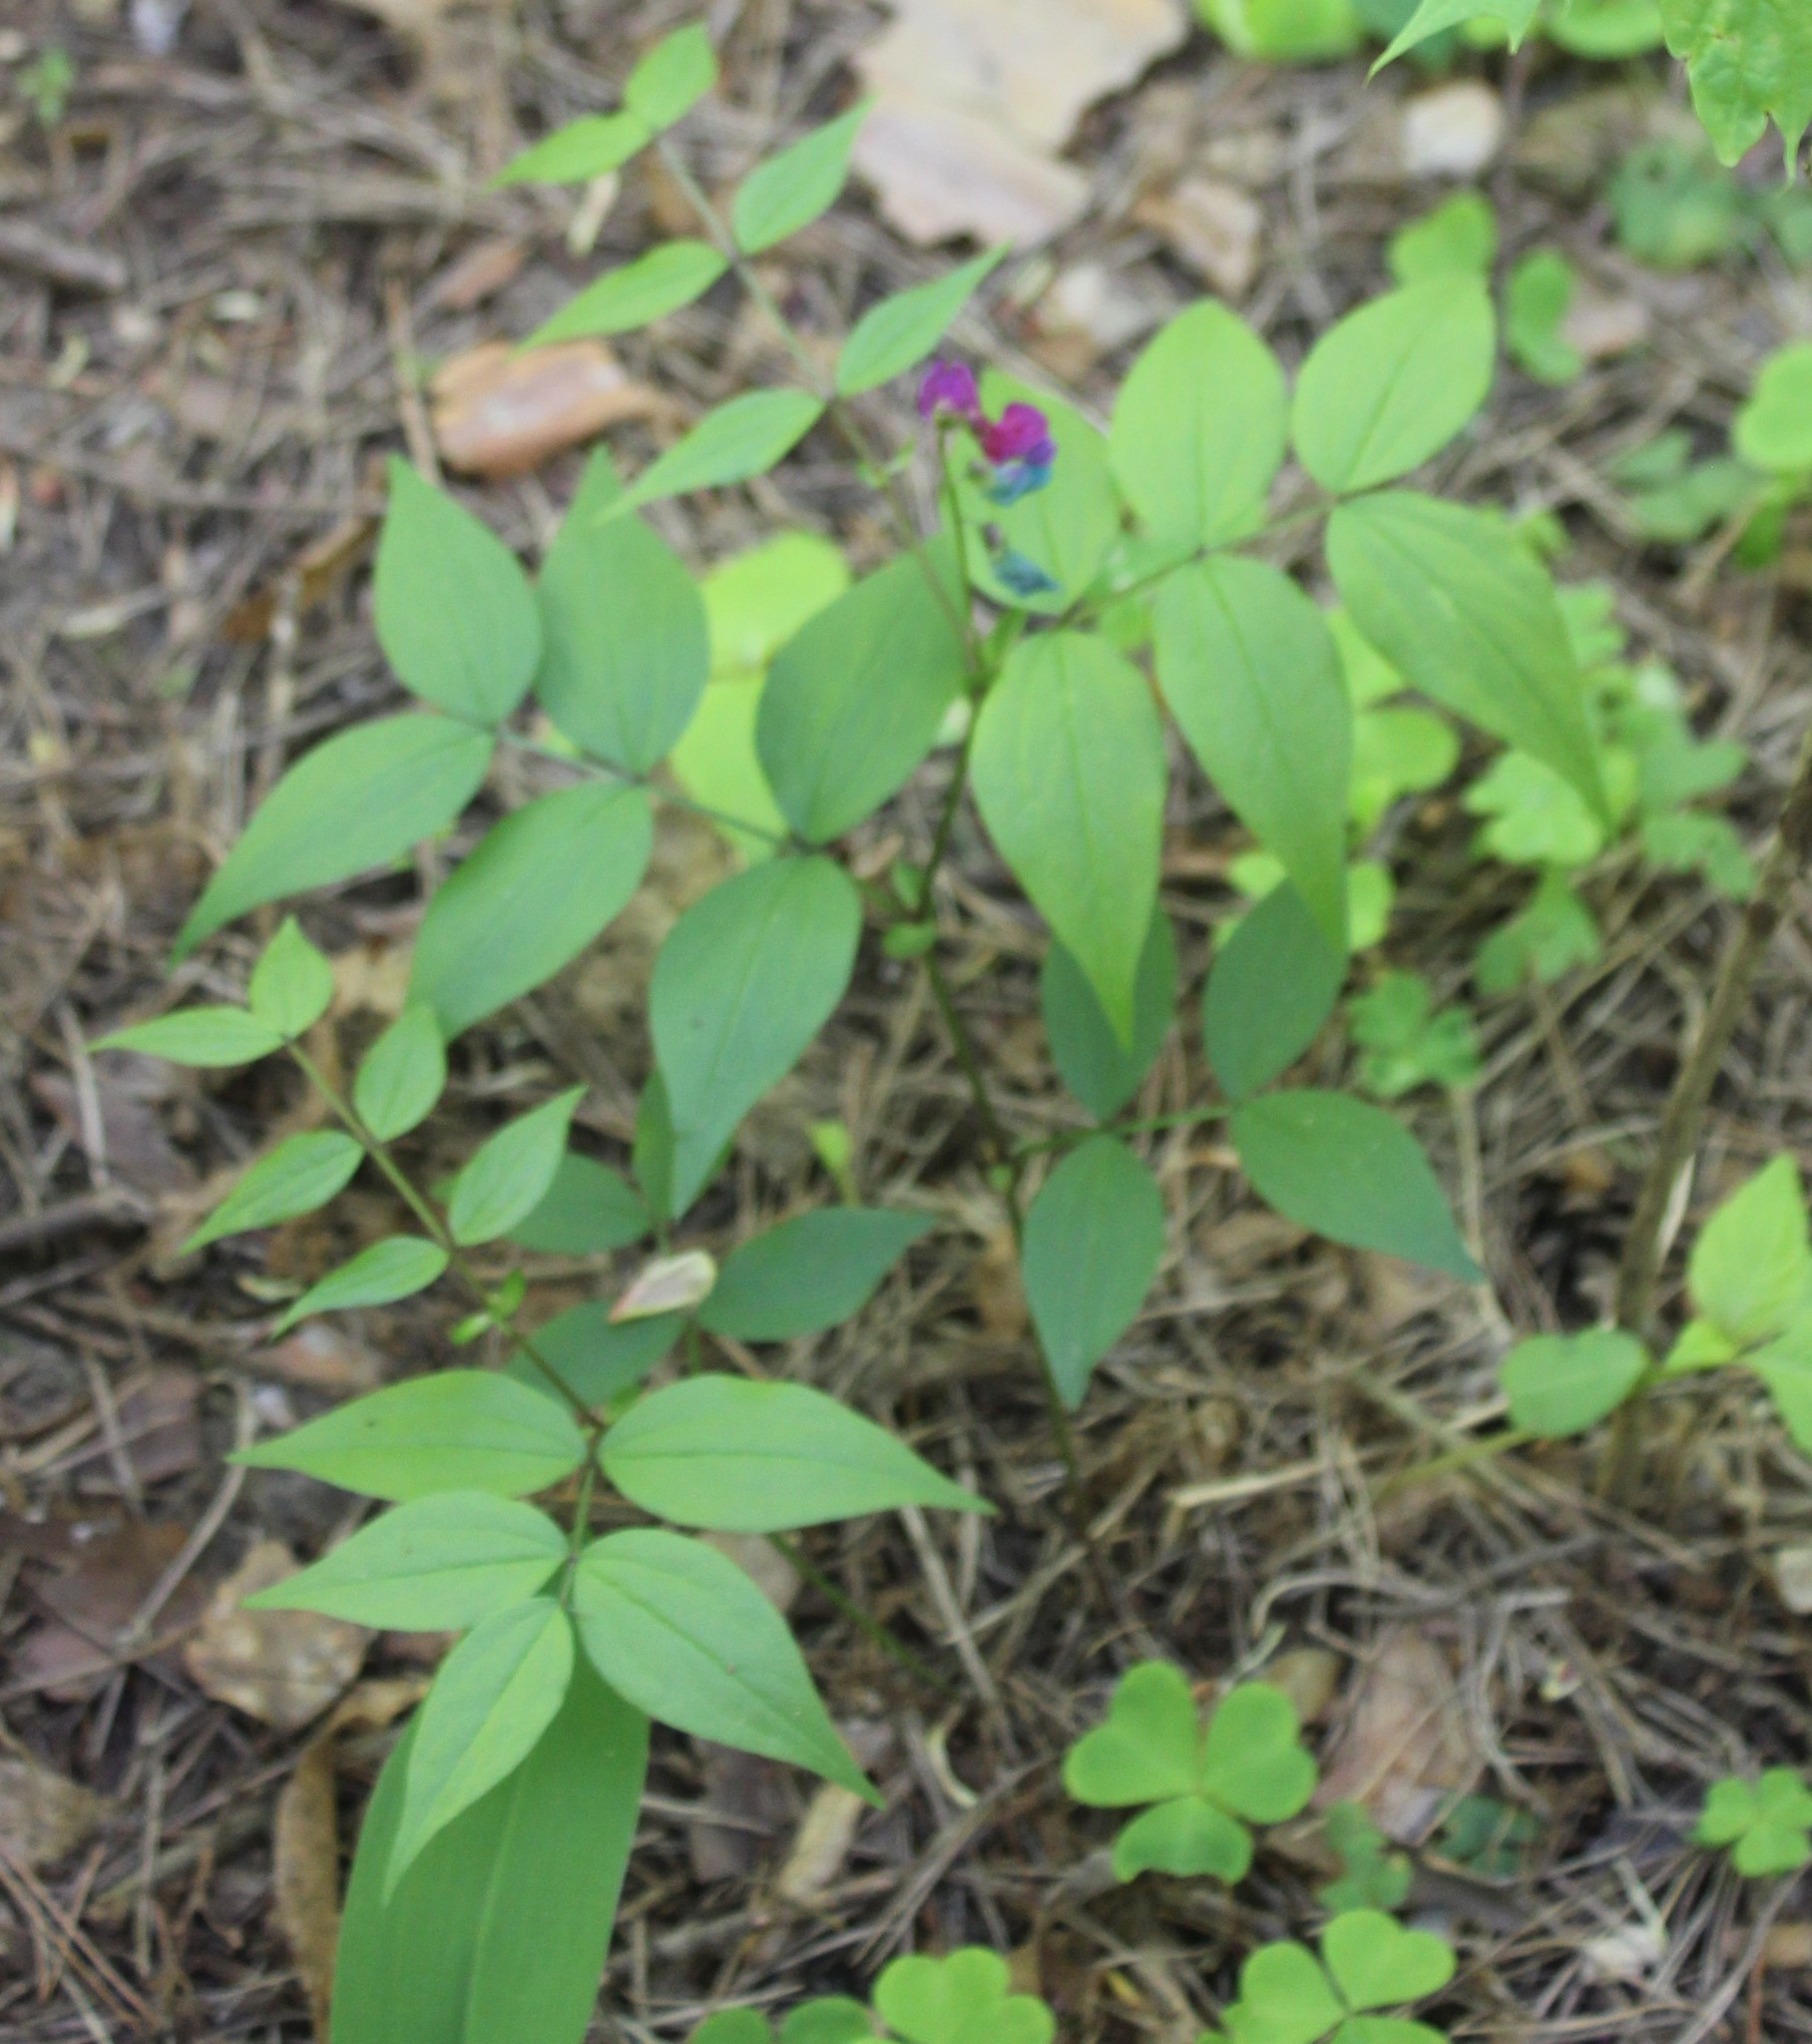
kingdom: Plantae
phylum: Tracheophyta
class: Magnoliopsida
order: Fabales
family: Fabaceae
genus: Lathyrus
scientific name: Lathyrus vernus
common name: Spring pea
